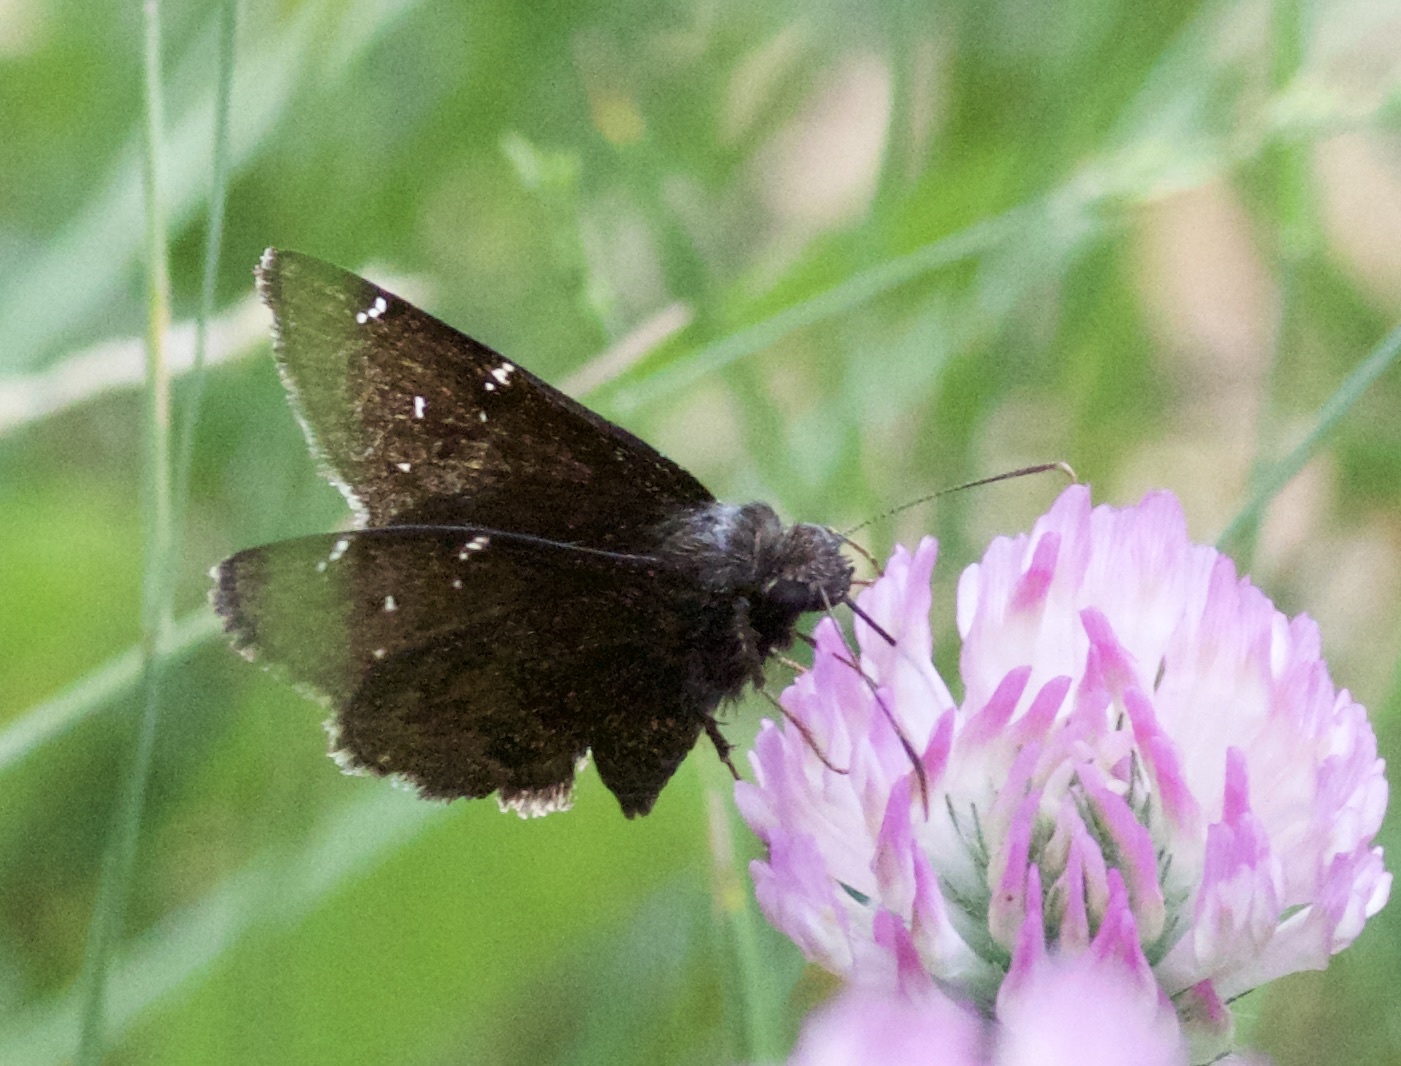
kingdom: Animalia
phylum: Arthropoda
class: Insecta
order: Lepidoptera
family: Hesperiidae
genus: Thorybes
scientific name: Thorybes pylades
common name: Northern cloudywing
